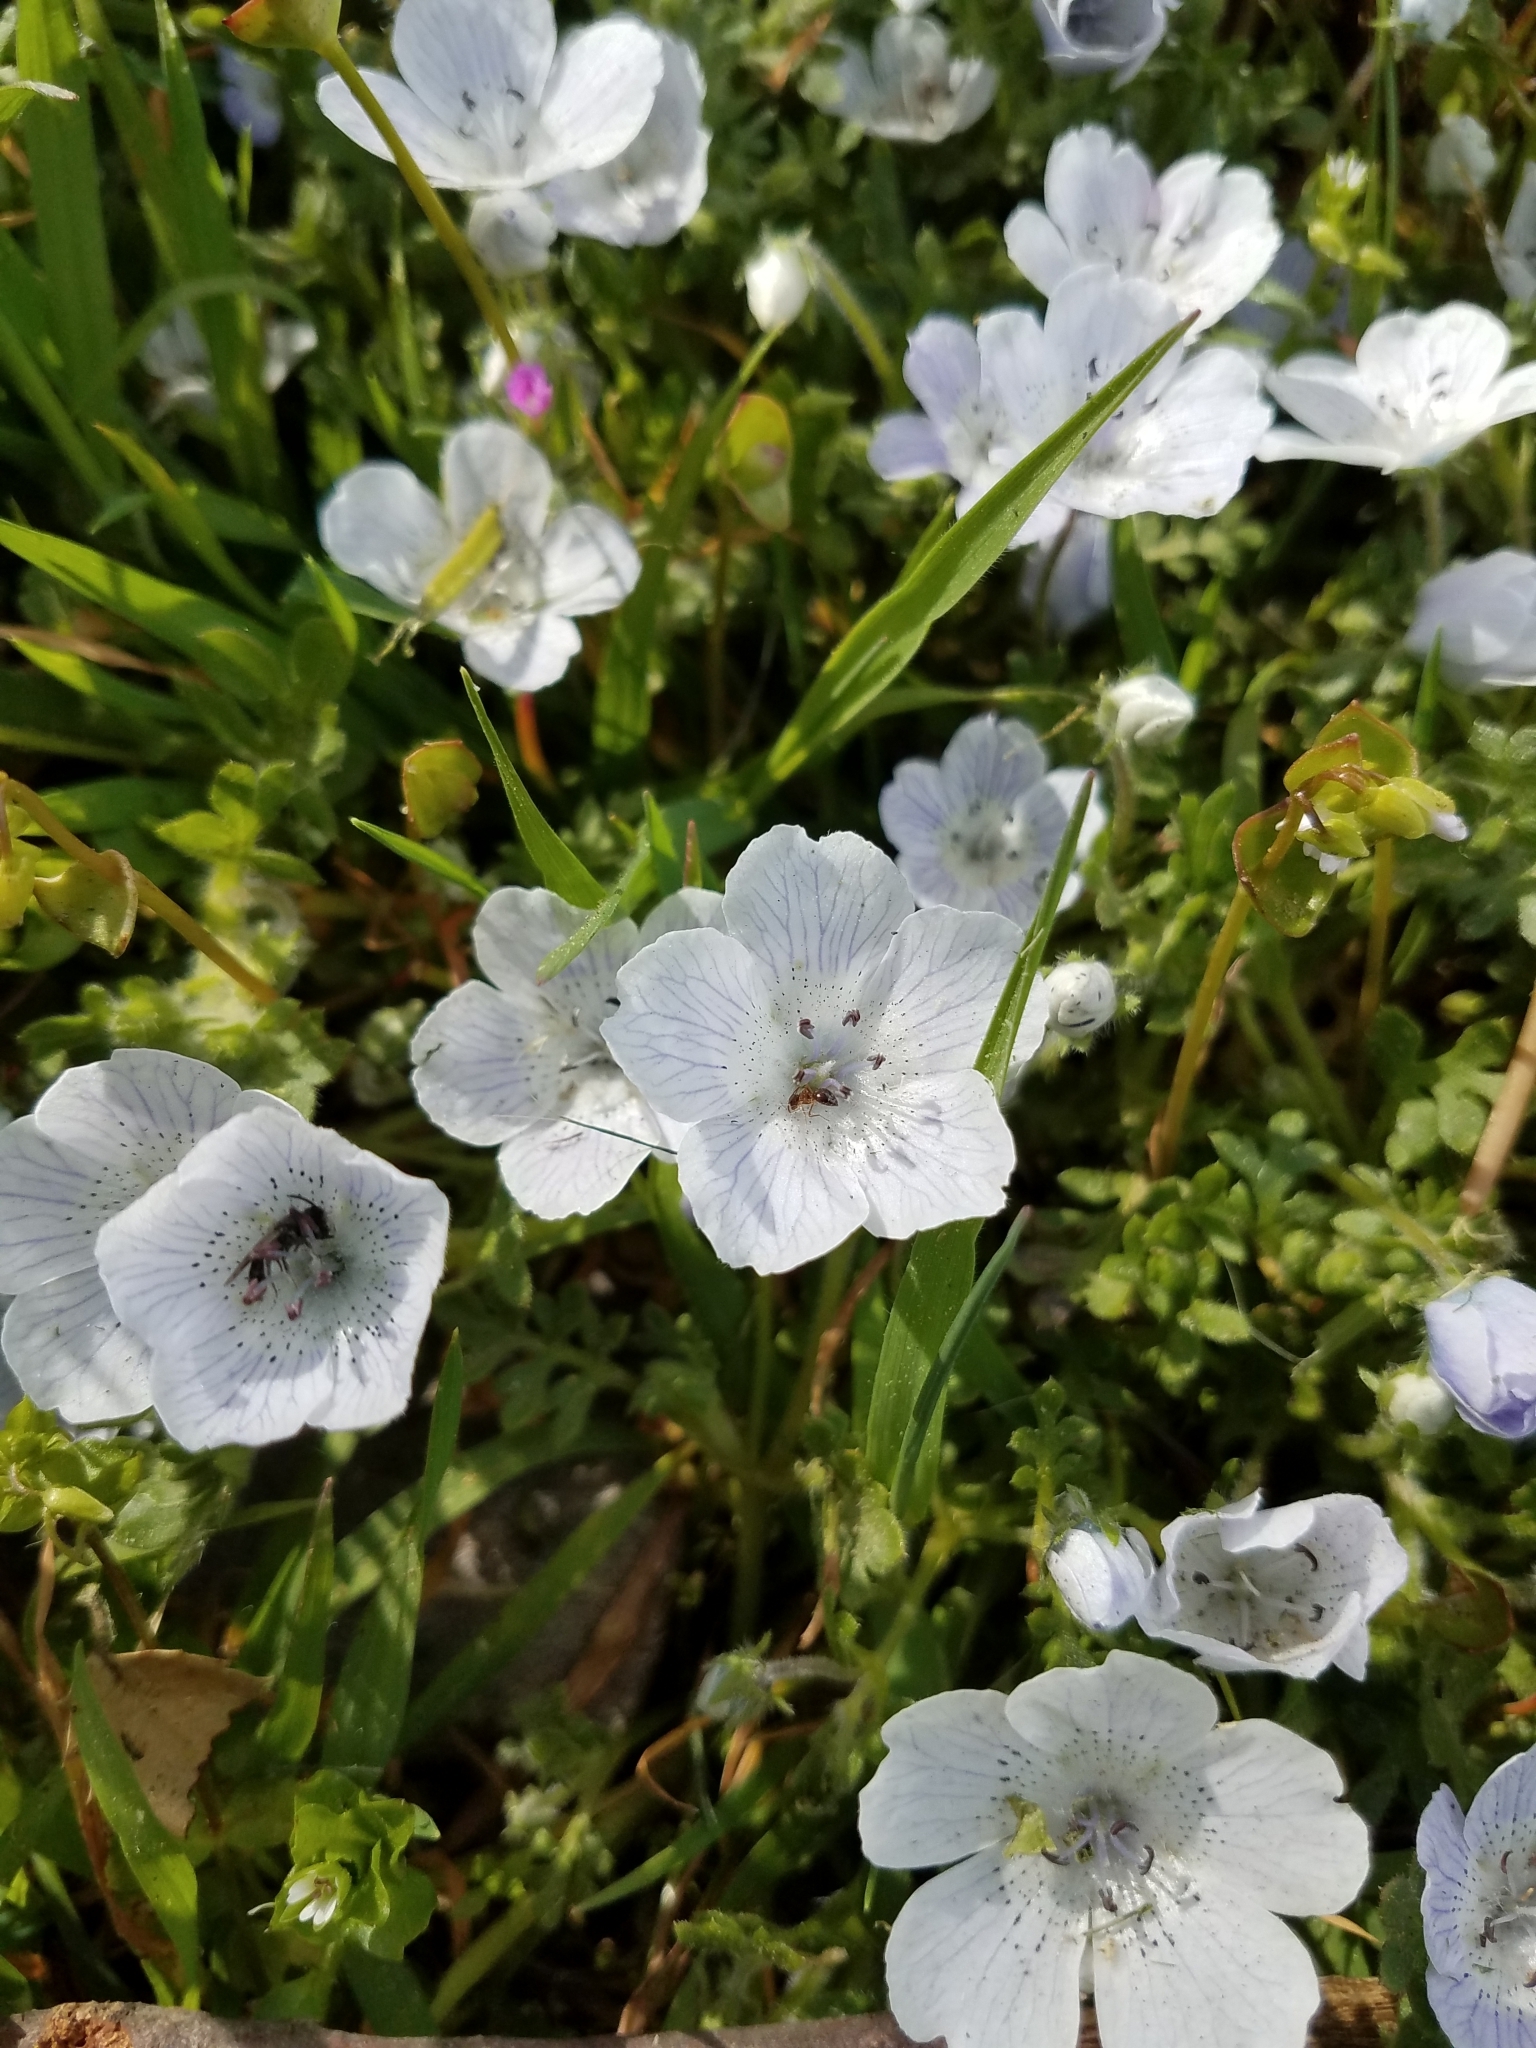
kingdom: Plantae
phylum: Tracheophyta
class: Magnoliopsida
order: Boraginales
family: Hydrophyllaceae
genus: Nemophila
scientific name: Nemophila menziesii
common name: Baby's-blue-eyes
